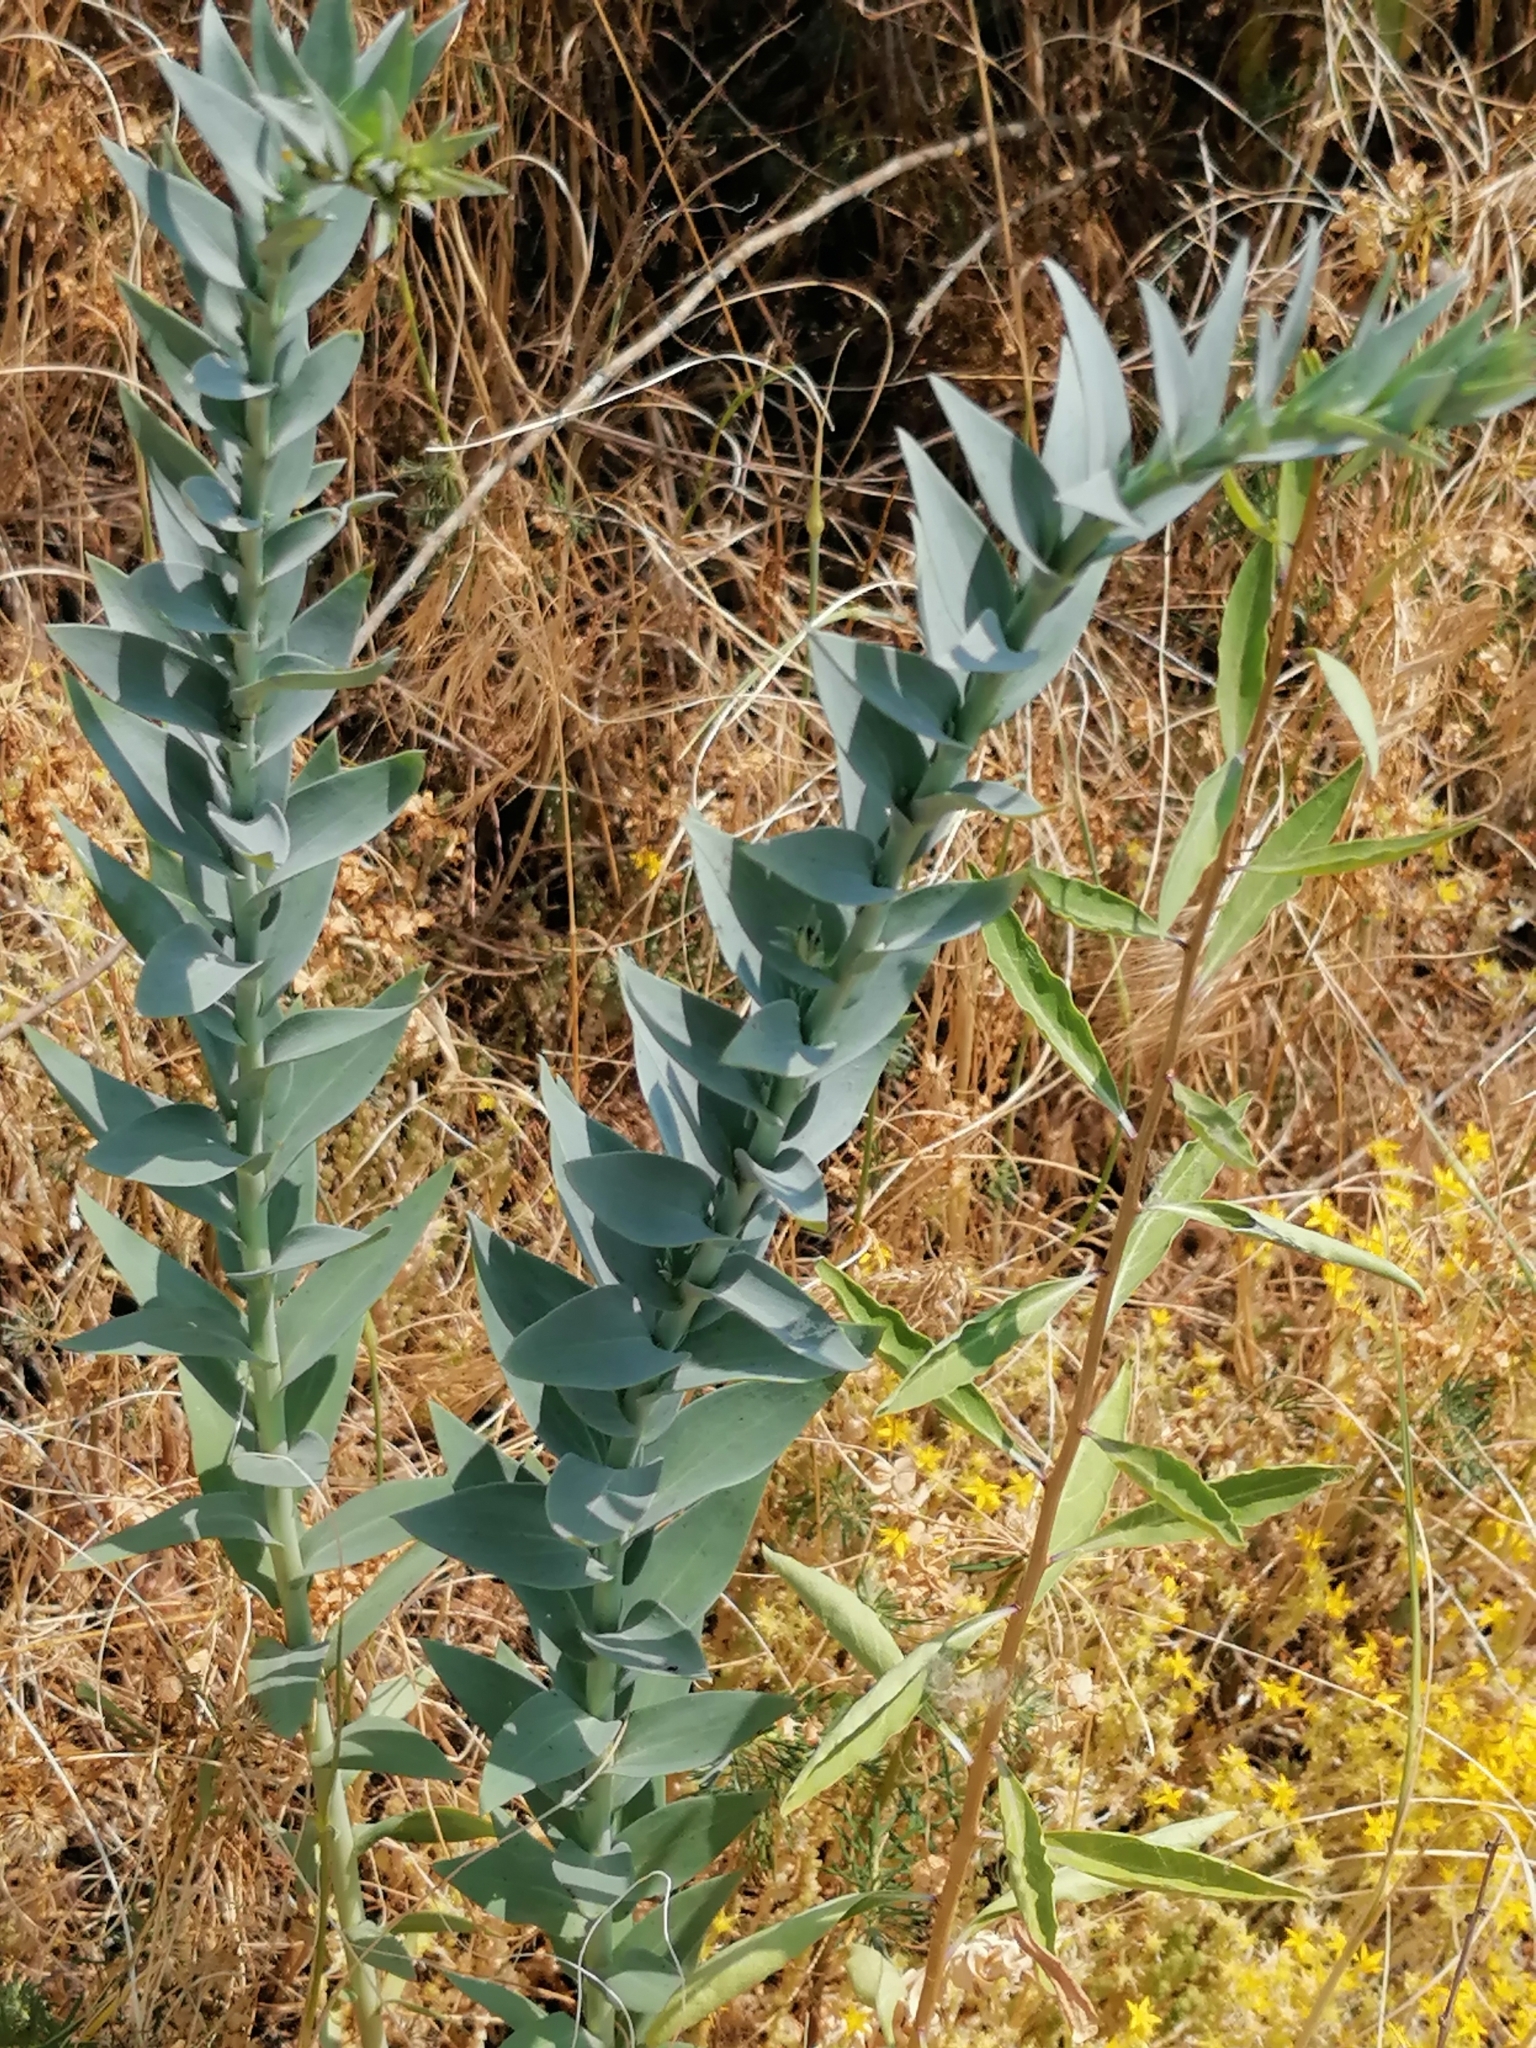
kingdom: Plantae
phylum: Tracheophyta
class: Magnoliopsida
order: Lamiales
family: Plantaginaceae
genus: Linaria
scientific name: Linaria genistifolia
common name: Broomleaf toadflax
